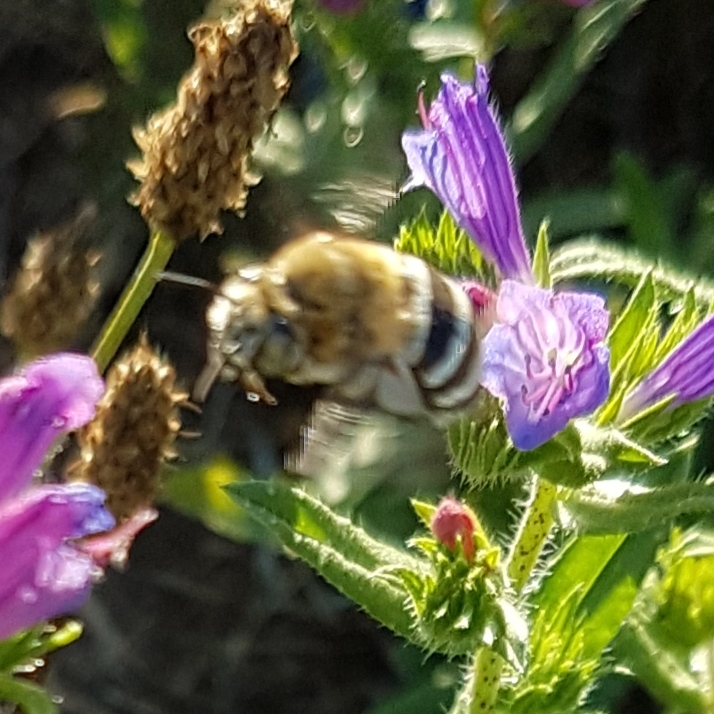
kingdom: Animalia
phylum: Arthropoda
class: Insecta
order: Hymenoptera
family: Apidae
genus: Amegilla
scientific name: Amegilla quadrifasciata
